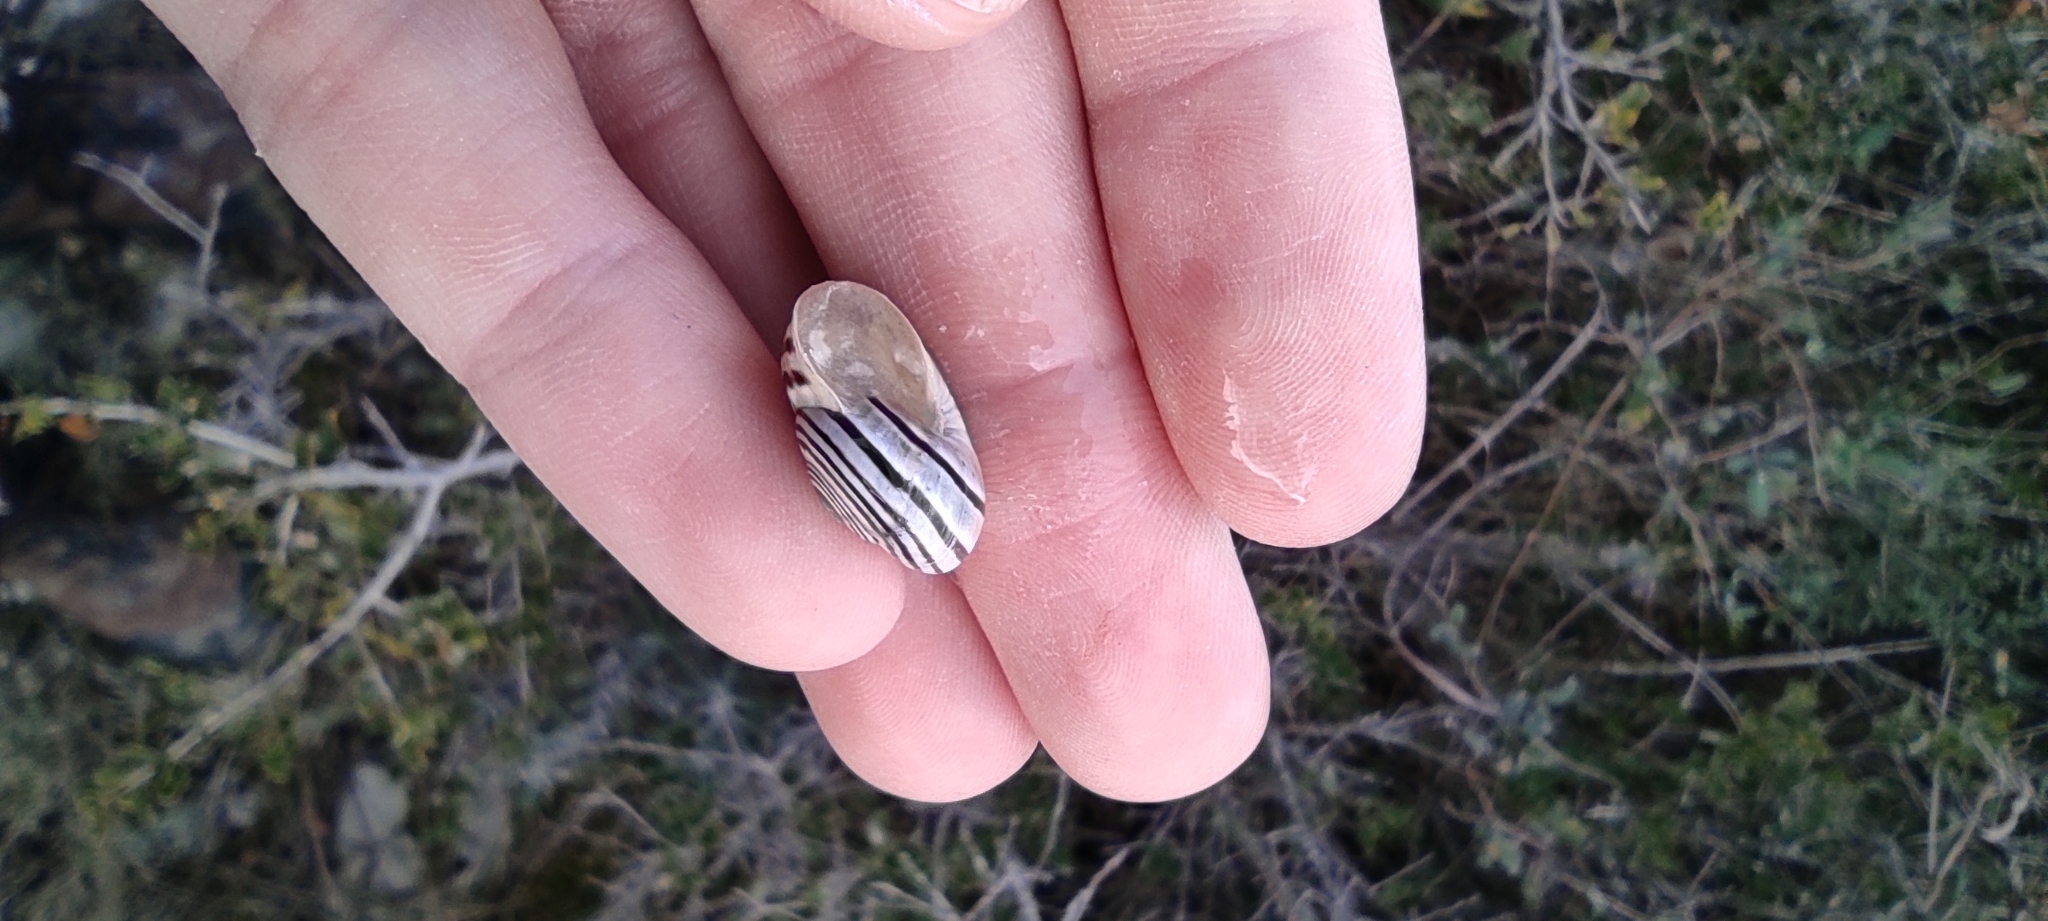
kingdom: Animalia
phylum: Mollusca
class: Gastropoda
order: Stylommatophora
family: Helicidae
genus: Pseudotachea
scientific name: Pseudotachea splendida
